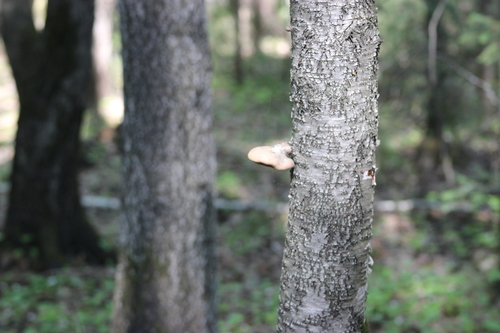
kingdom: Fungi
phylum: Basidiomycota
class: Agaricomycetes
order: Polyporales
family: Fomitopsidaceae
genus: Fomitopsis
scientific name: Fomitopsis betulina
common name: Birch polypore
